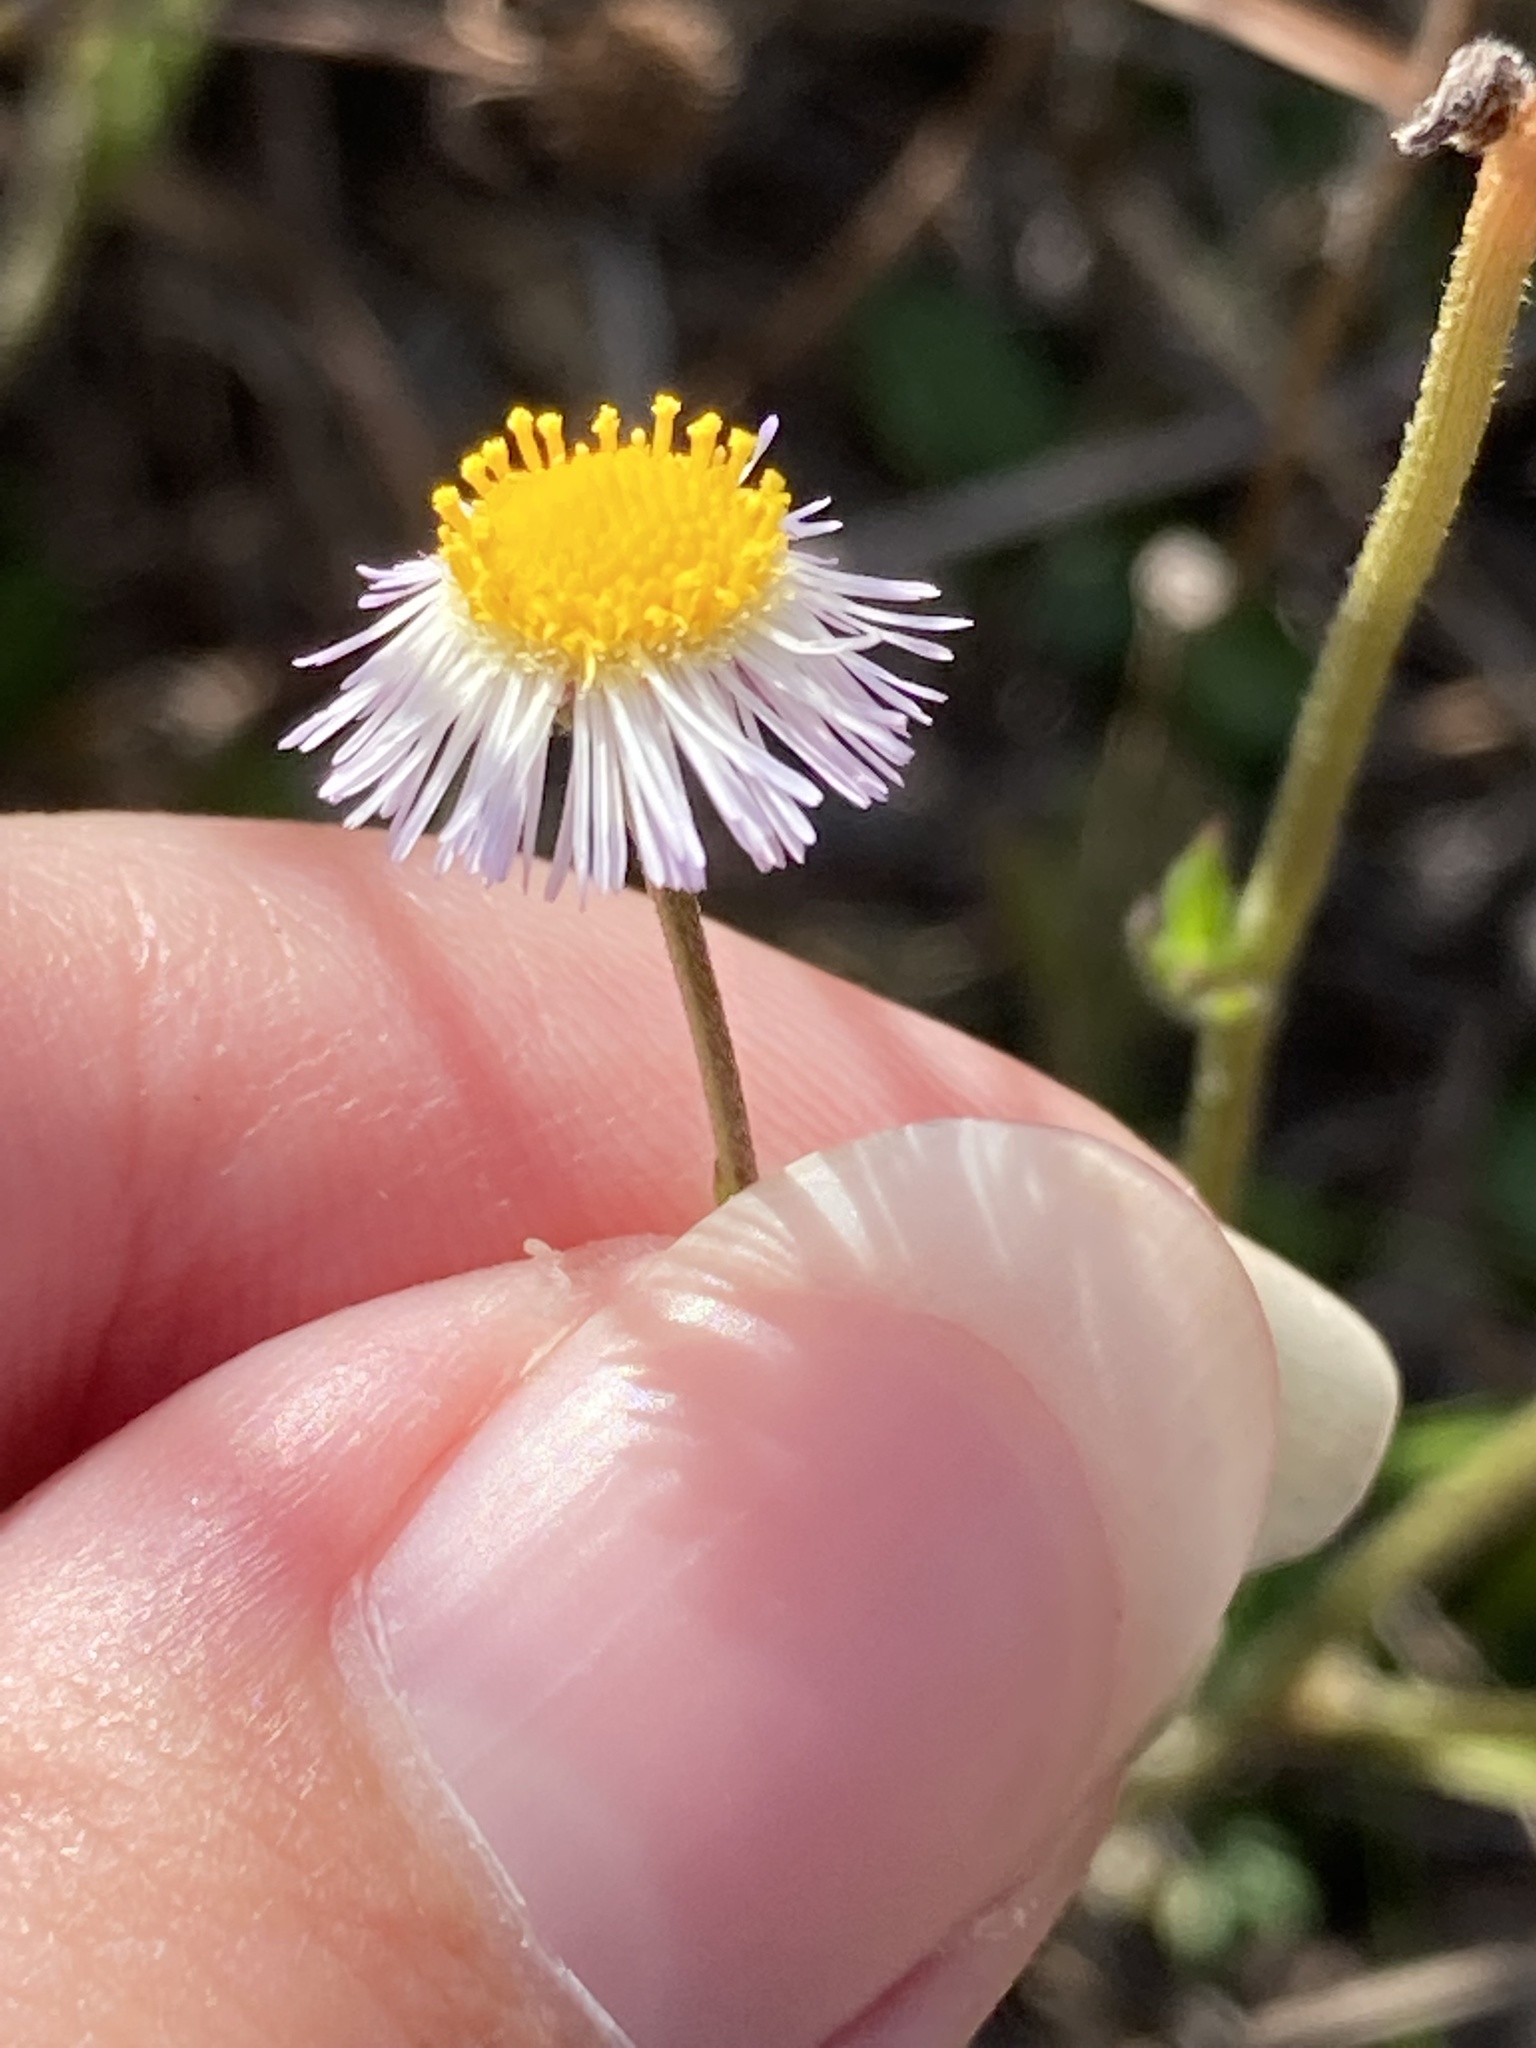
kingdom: Plantae
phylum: Tracheophyta
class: Magnoliopsida
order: Asterales
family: Asteraceae
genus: Erigeron
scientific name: Erigeron quercifolius
